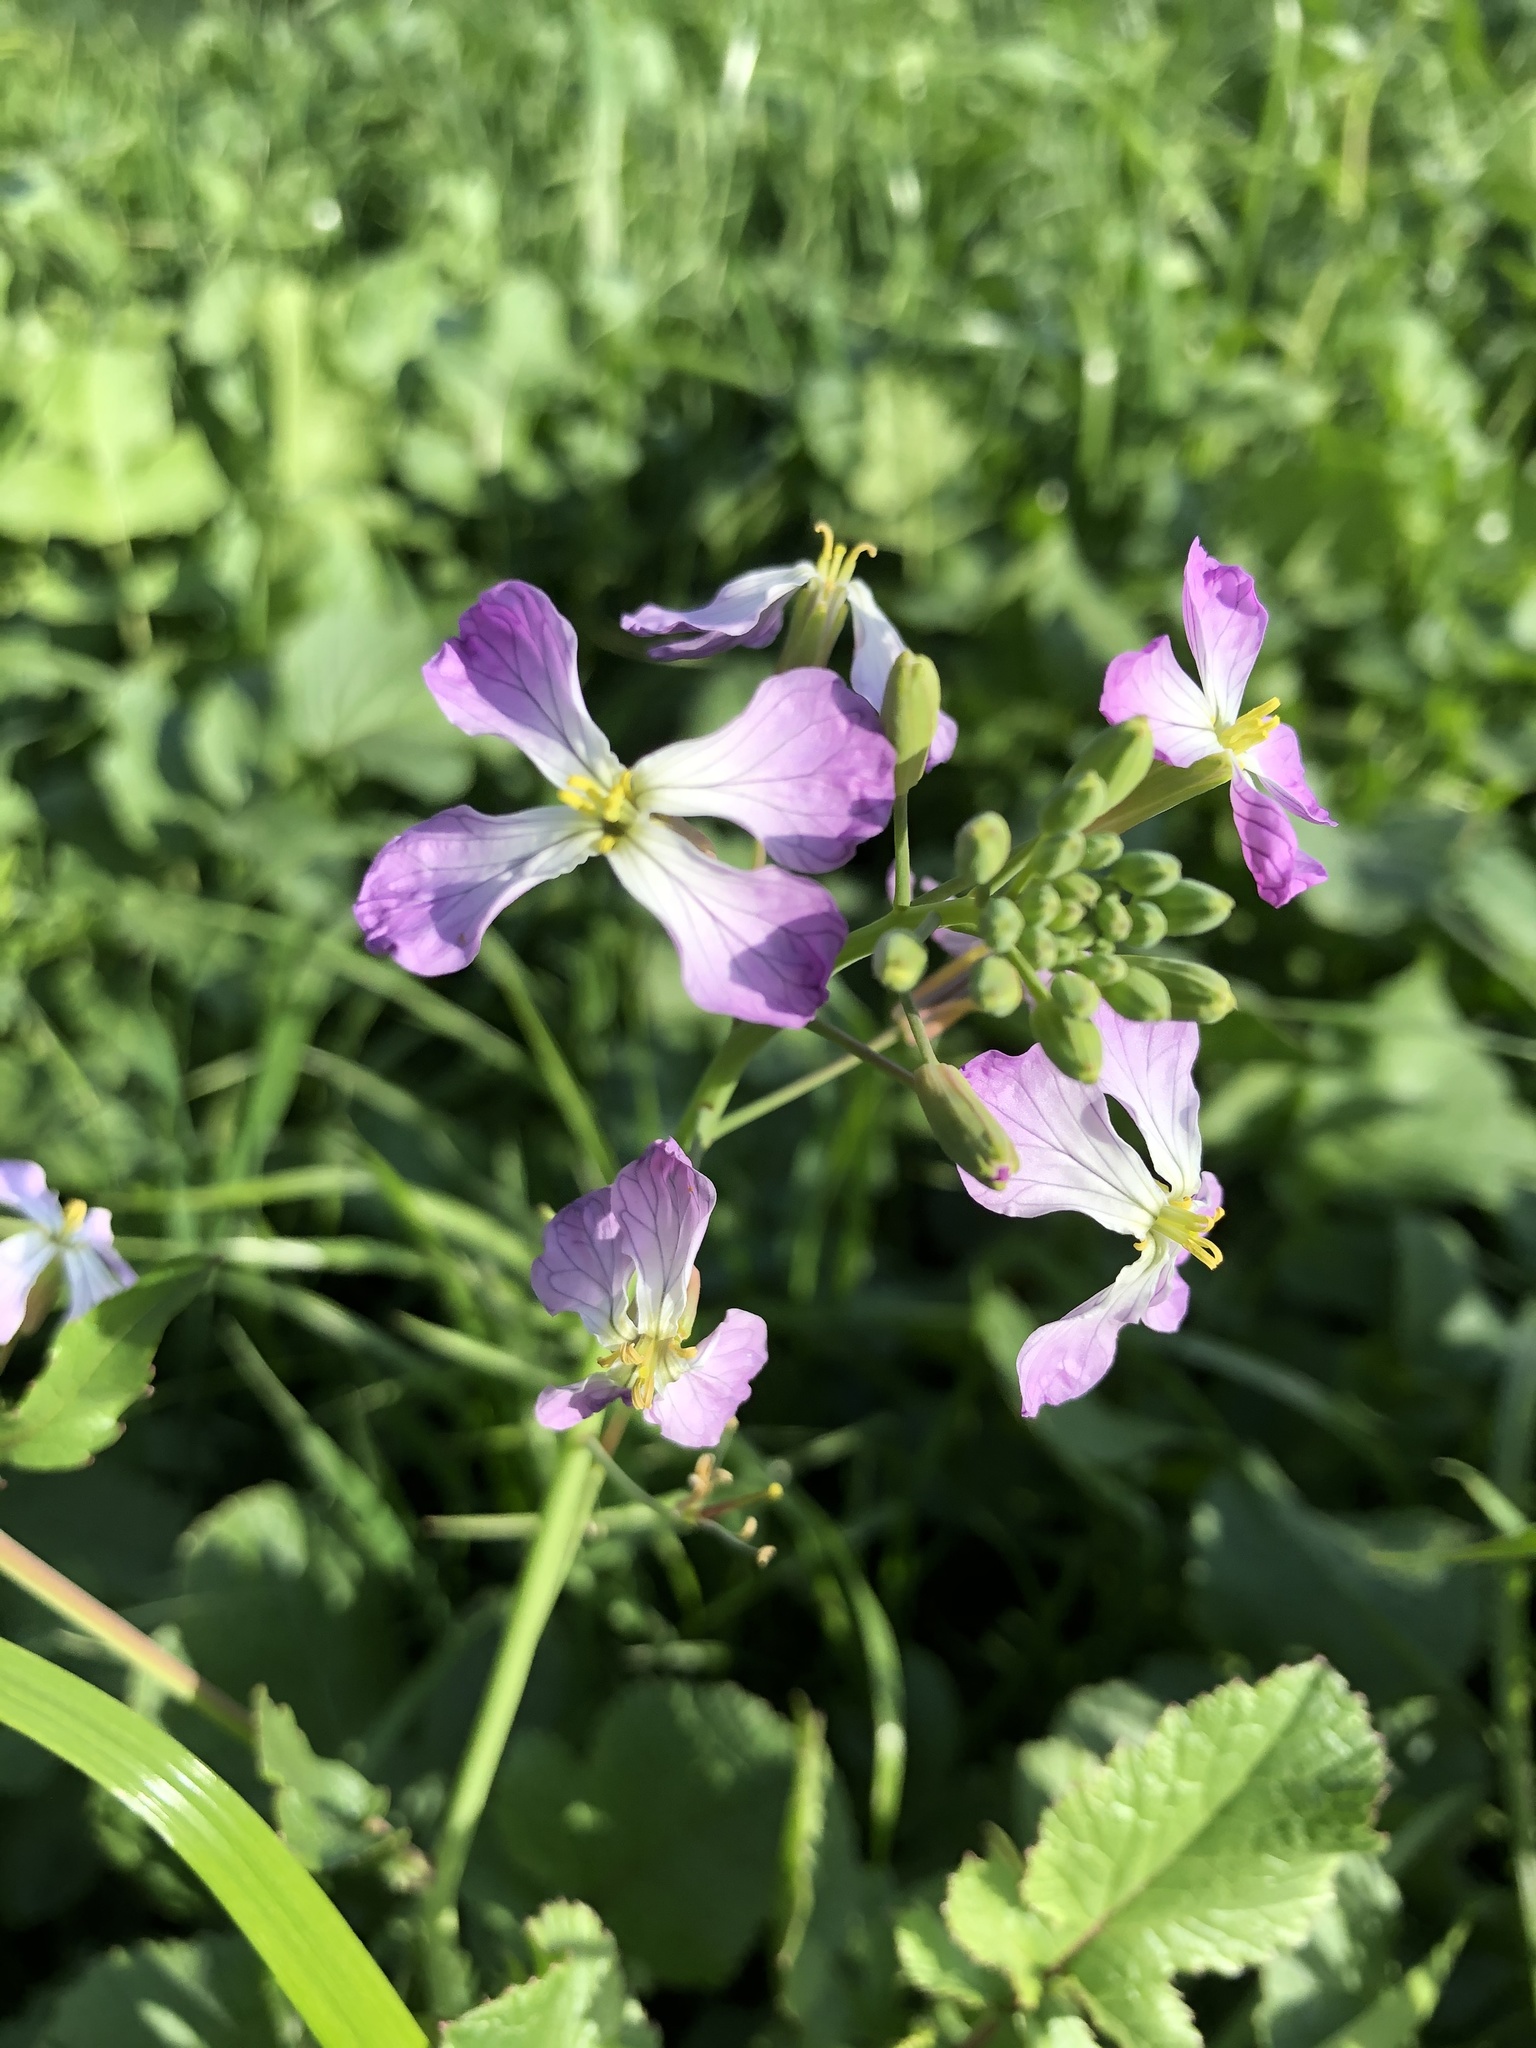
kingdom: Plantae
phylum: Tracheophyta
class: Magnoliopsida
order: Brassicales
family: Brassicaceae
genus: Raphanus
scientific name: Raphanus sativus
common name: Cultivated radish
